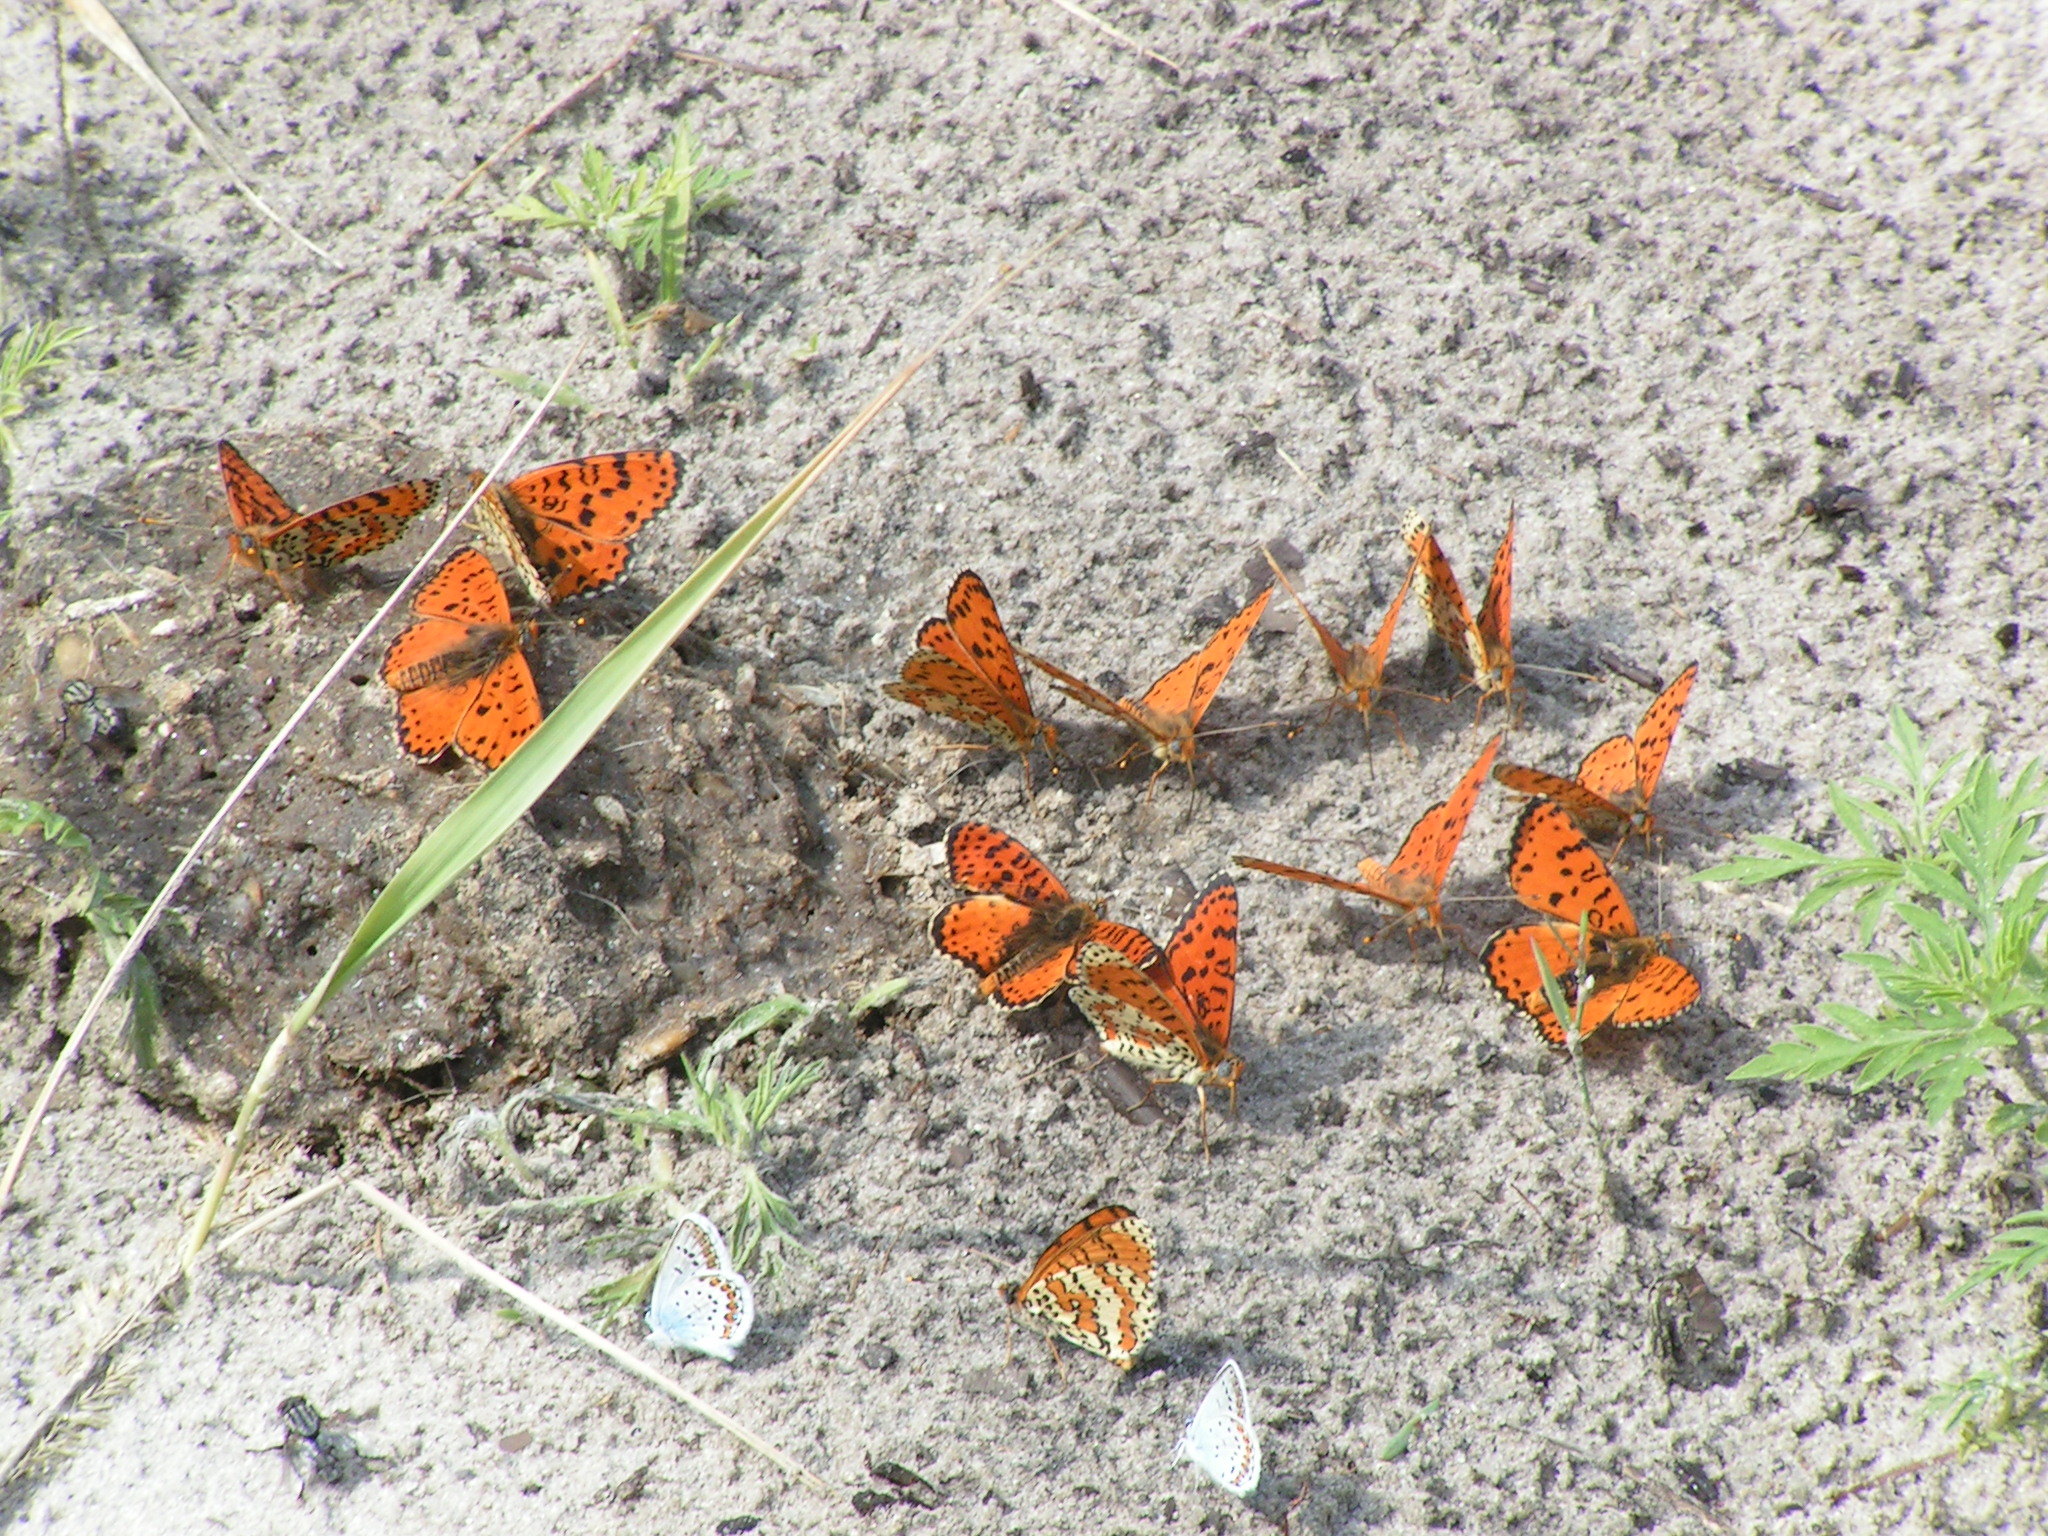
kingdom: Animalia
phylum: Arthropoda
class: Insecta
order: Lepidoptera
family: Nymphalidae
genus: Melitaea
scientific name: Melitaea didyma
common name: Spotted fritillary
